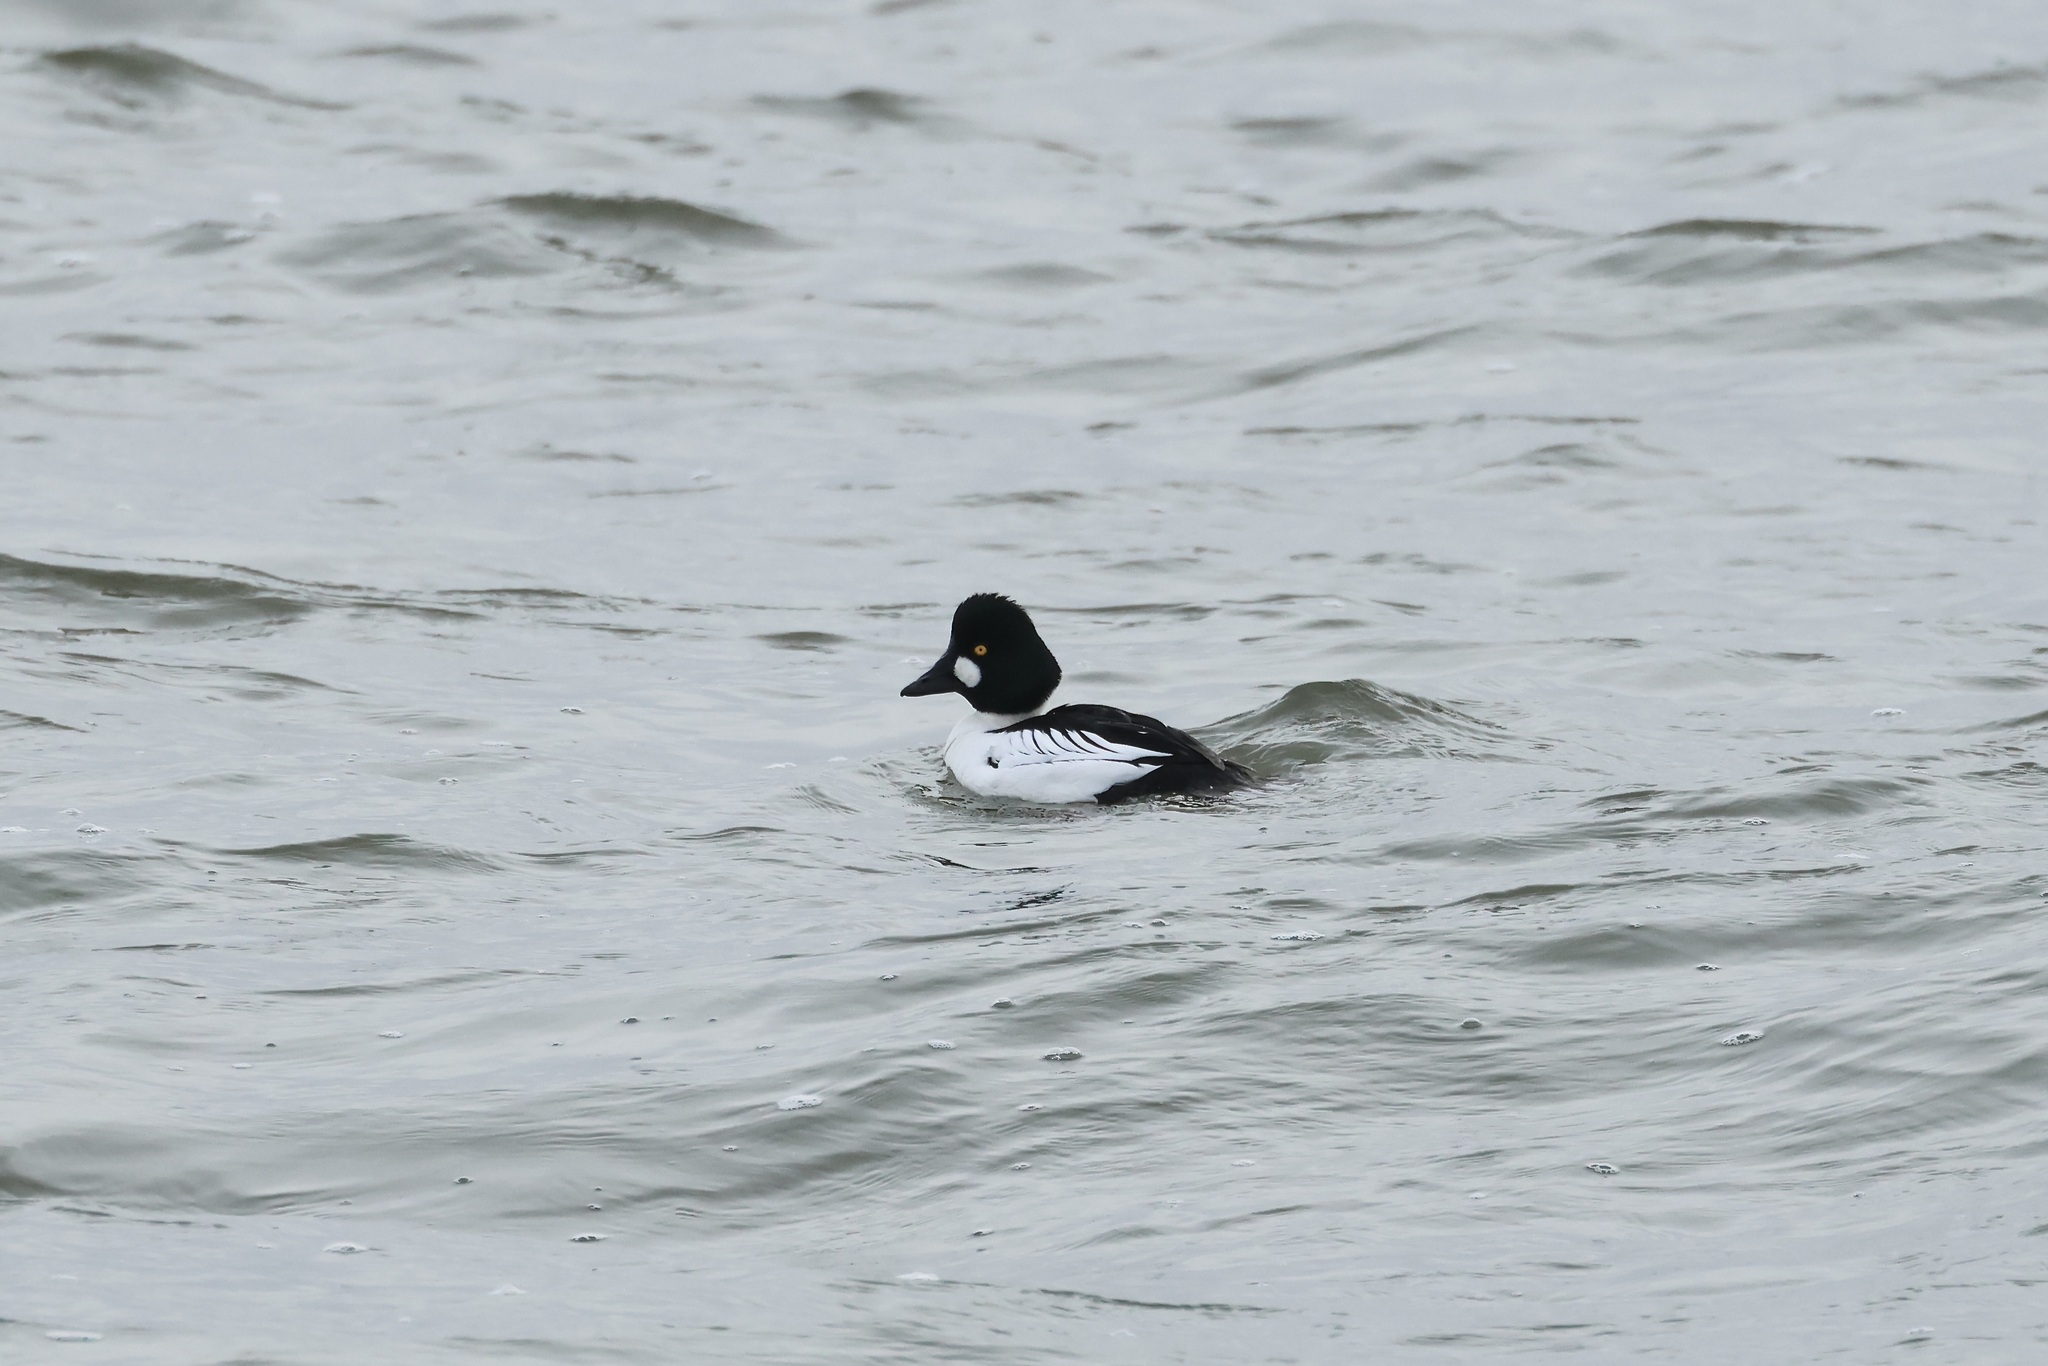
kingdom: Animalia
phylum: Chordata
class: Aves
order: Anseriformes
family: Anatidae
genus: Bucephala
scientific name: Bucephala clangula
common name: Common goldeneye
